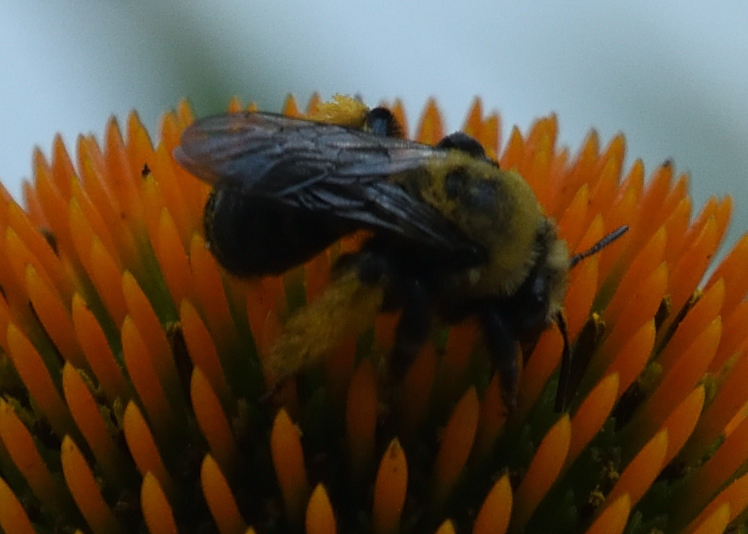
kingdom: Animalia
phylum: Arthropoda
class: Insecta
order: Hymenoptera
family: Apidae
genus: Melissodes
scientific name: Melissodes desponsus
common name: Thistle long-horned bee
